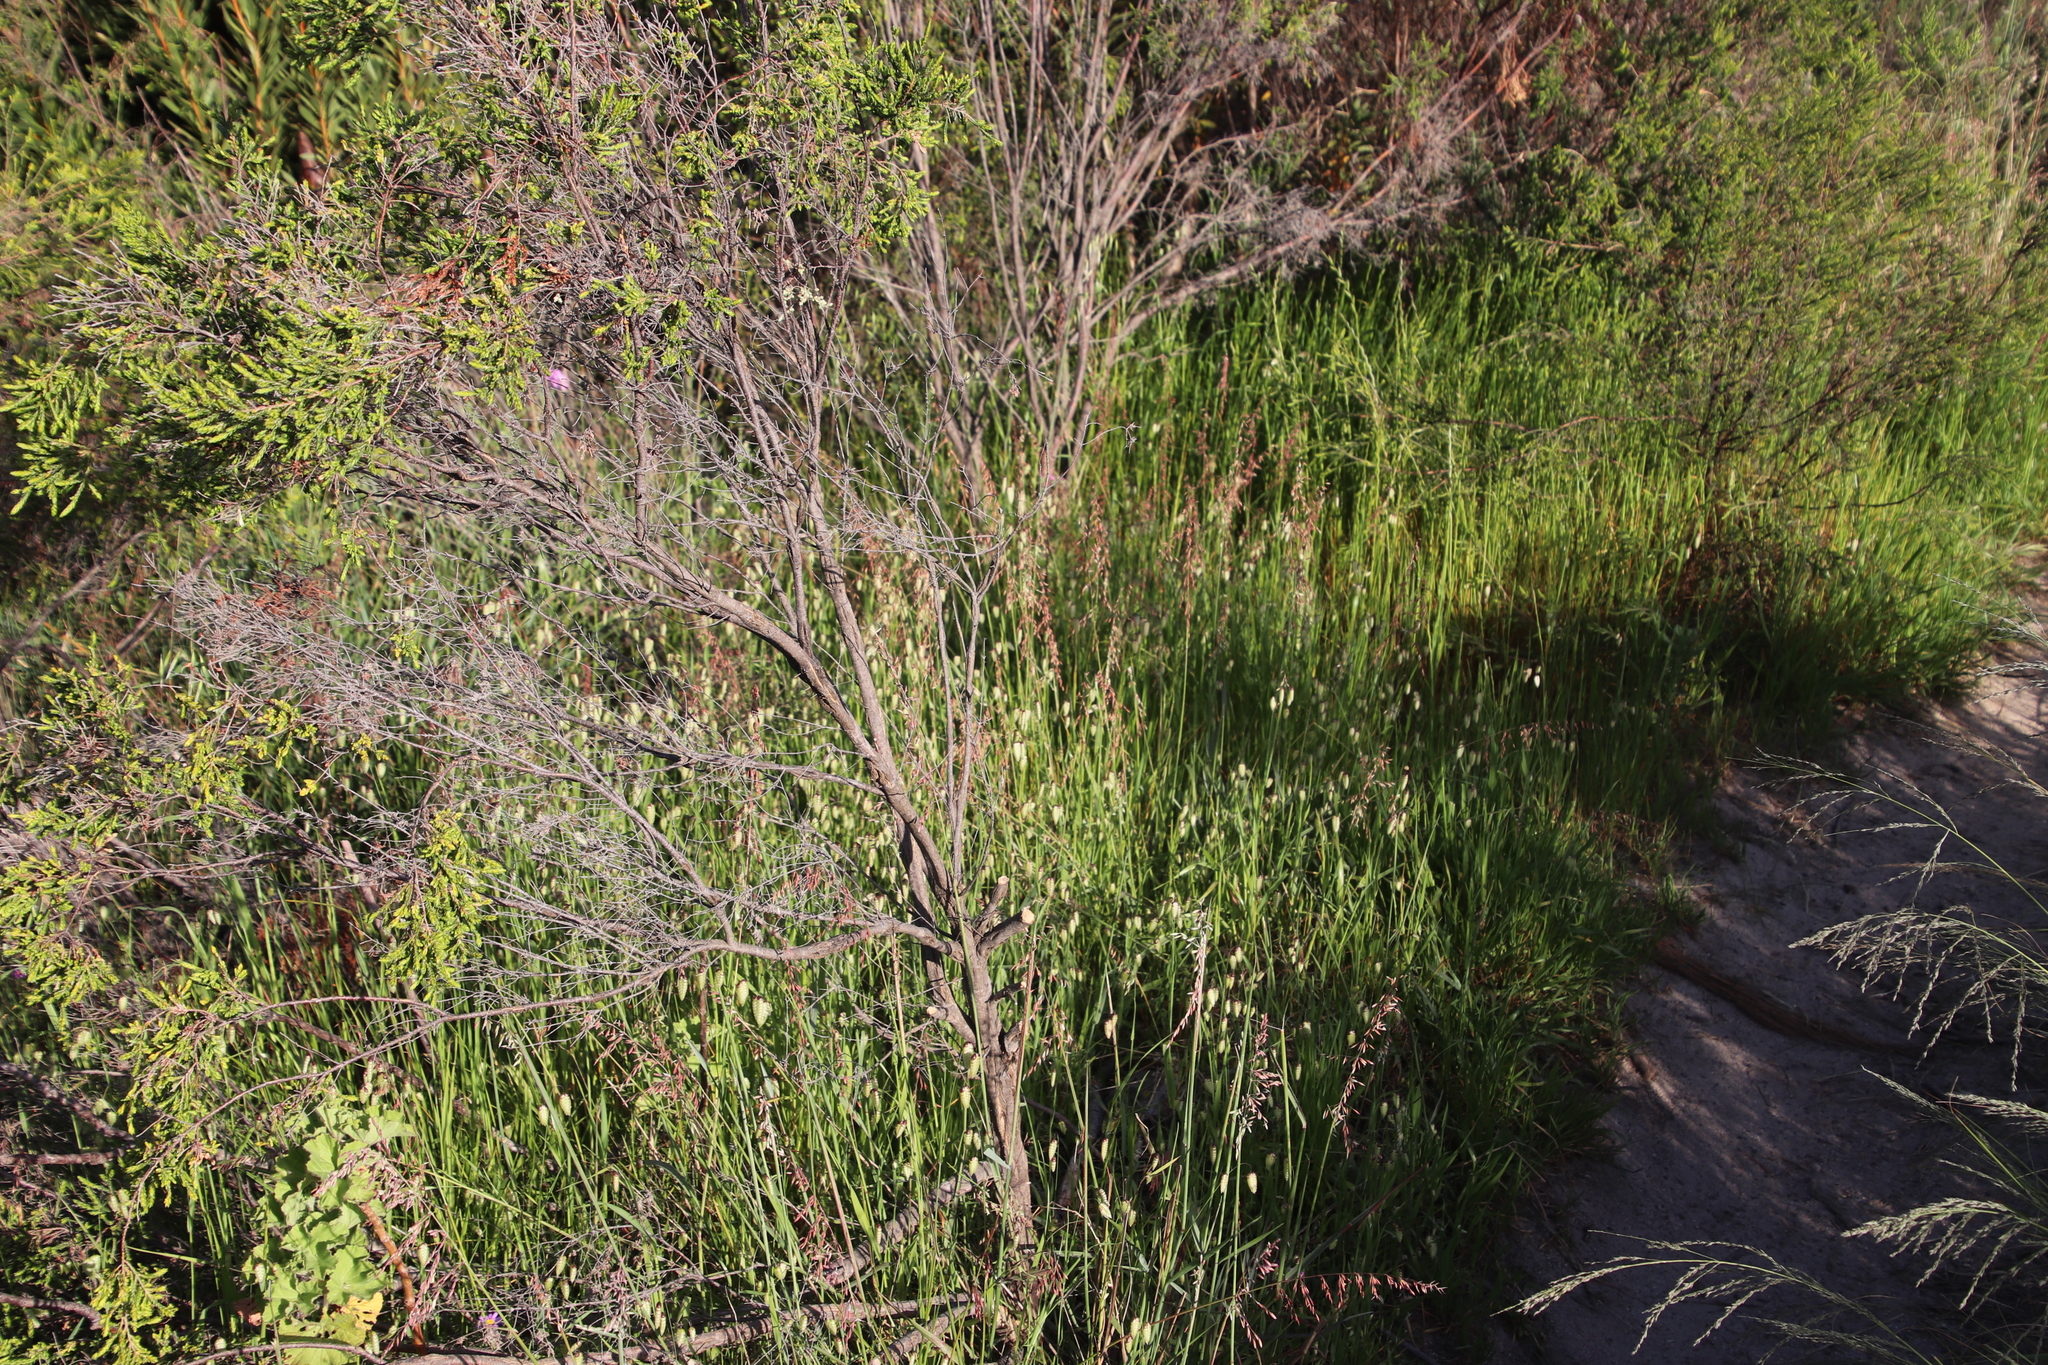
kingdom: Plantae
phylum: Tracheophyta
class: Liliopsida
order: Poales
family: Poaceae
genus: Briza
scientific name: Briza maxima
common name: Big quakinggrass
